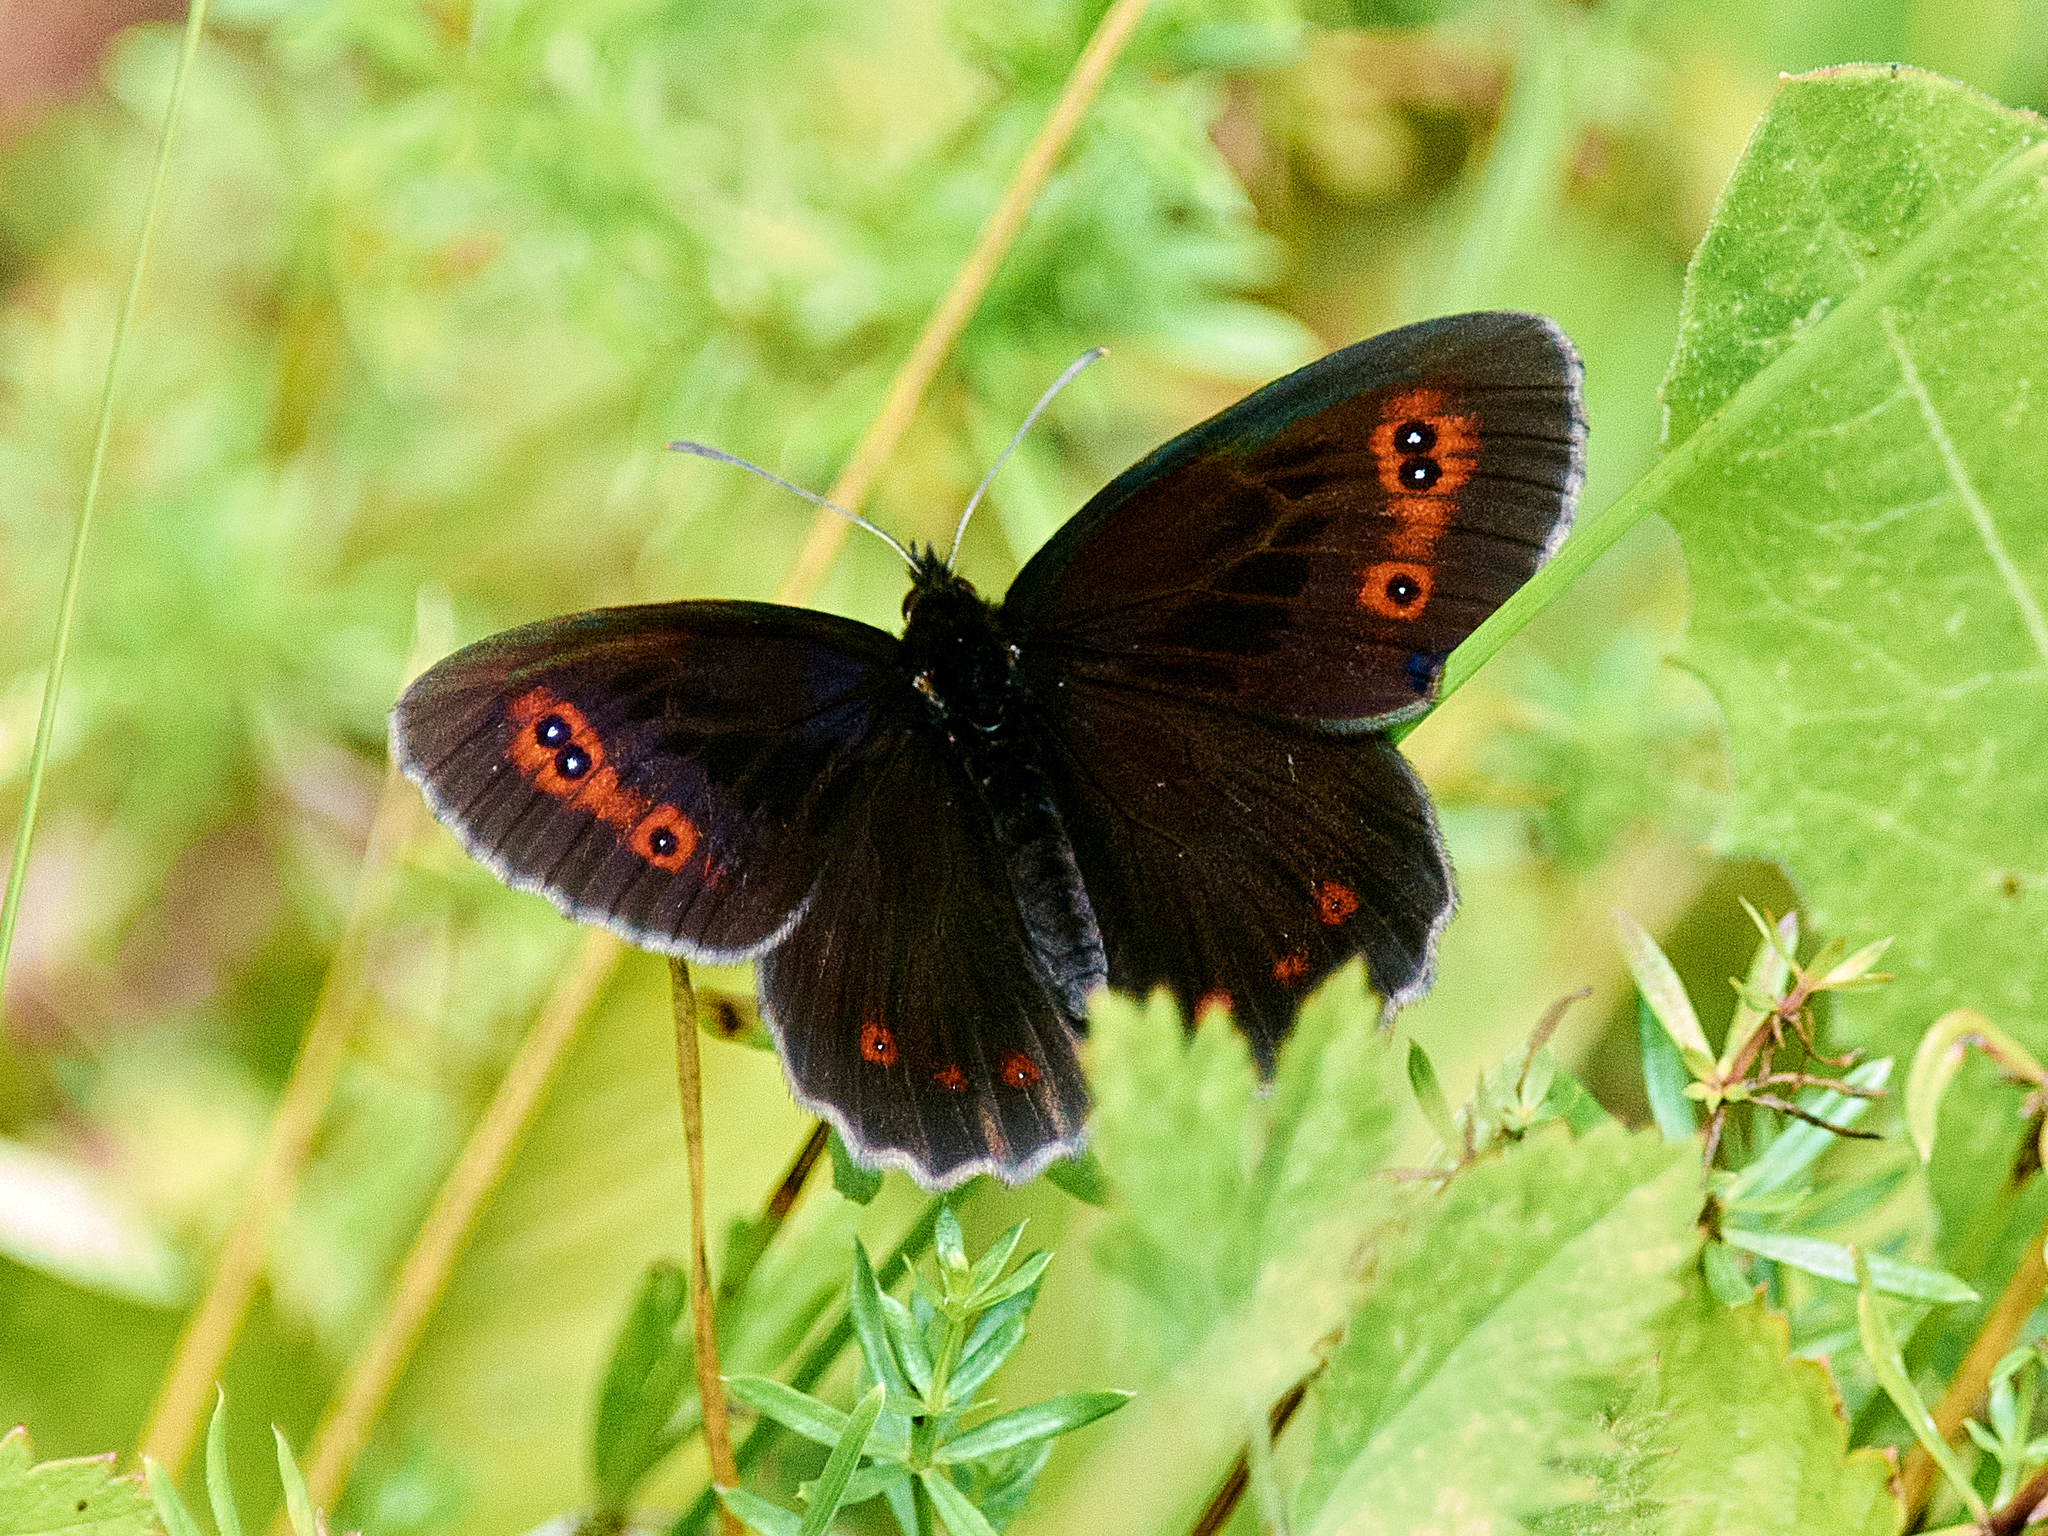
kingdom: Animalia
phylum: Arthropoda
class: Insecta
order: Lepidoptera
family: Nymphalidae
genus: Erebia
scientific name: Erebia aethiops
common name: Scotch argus
